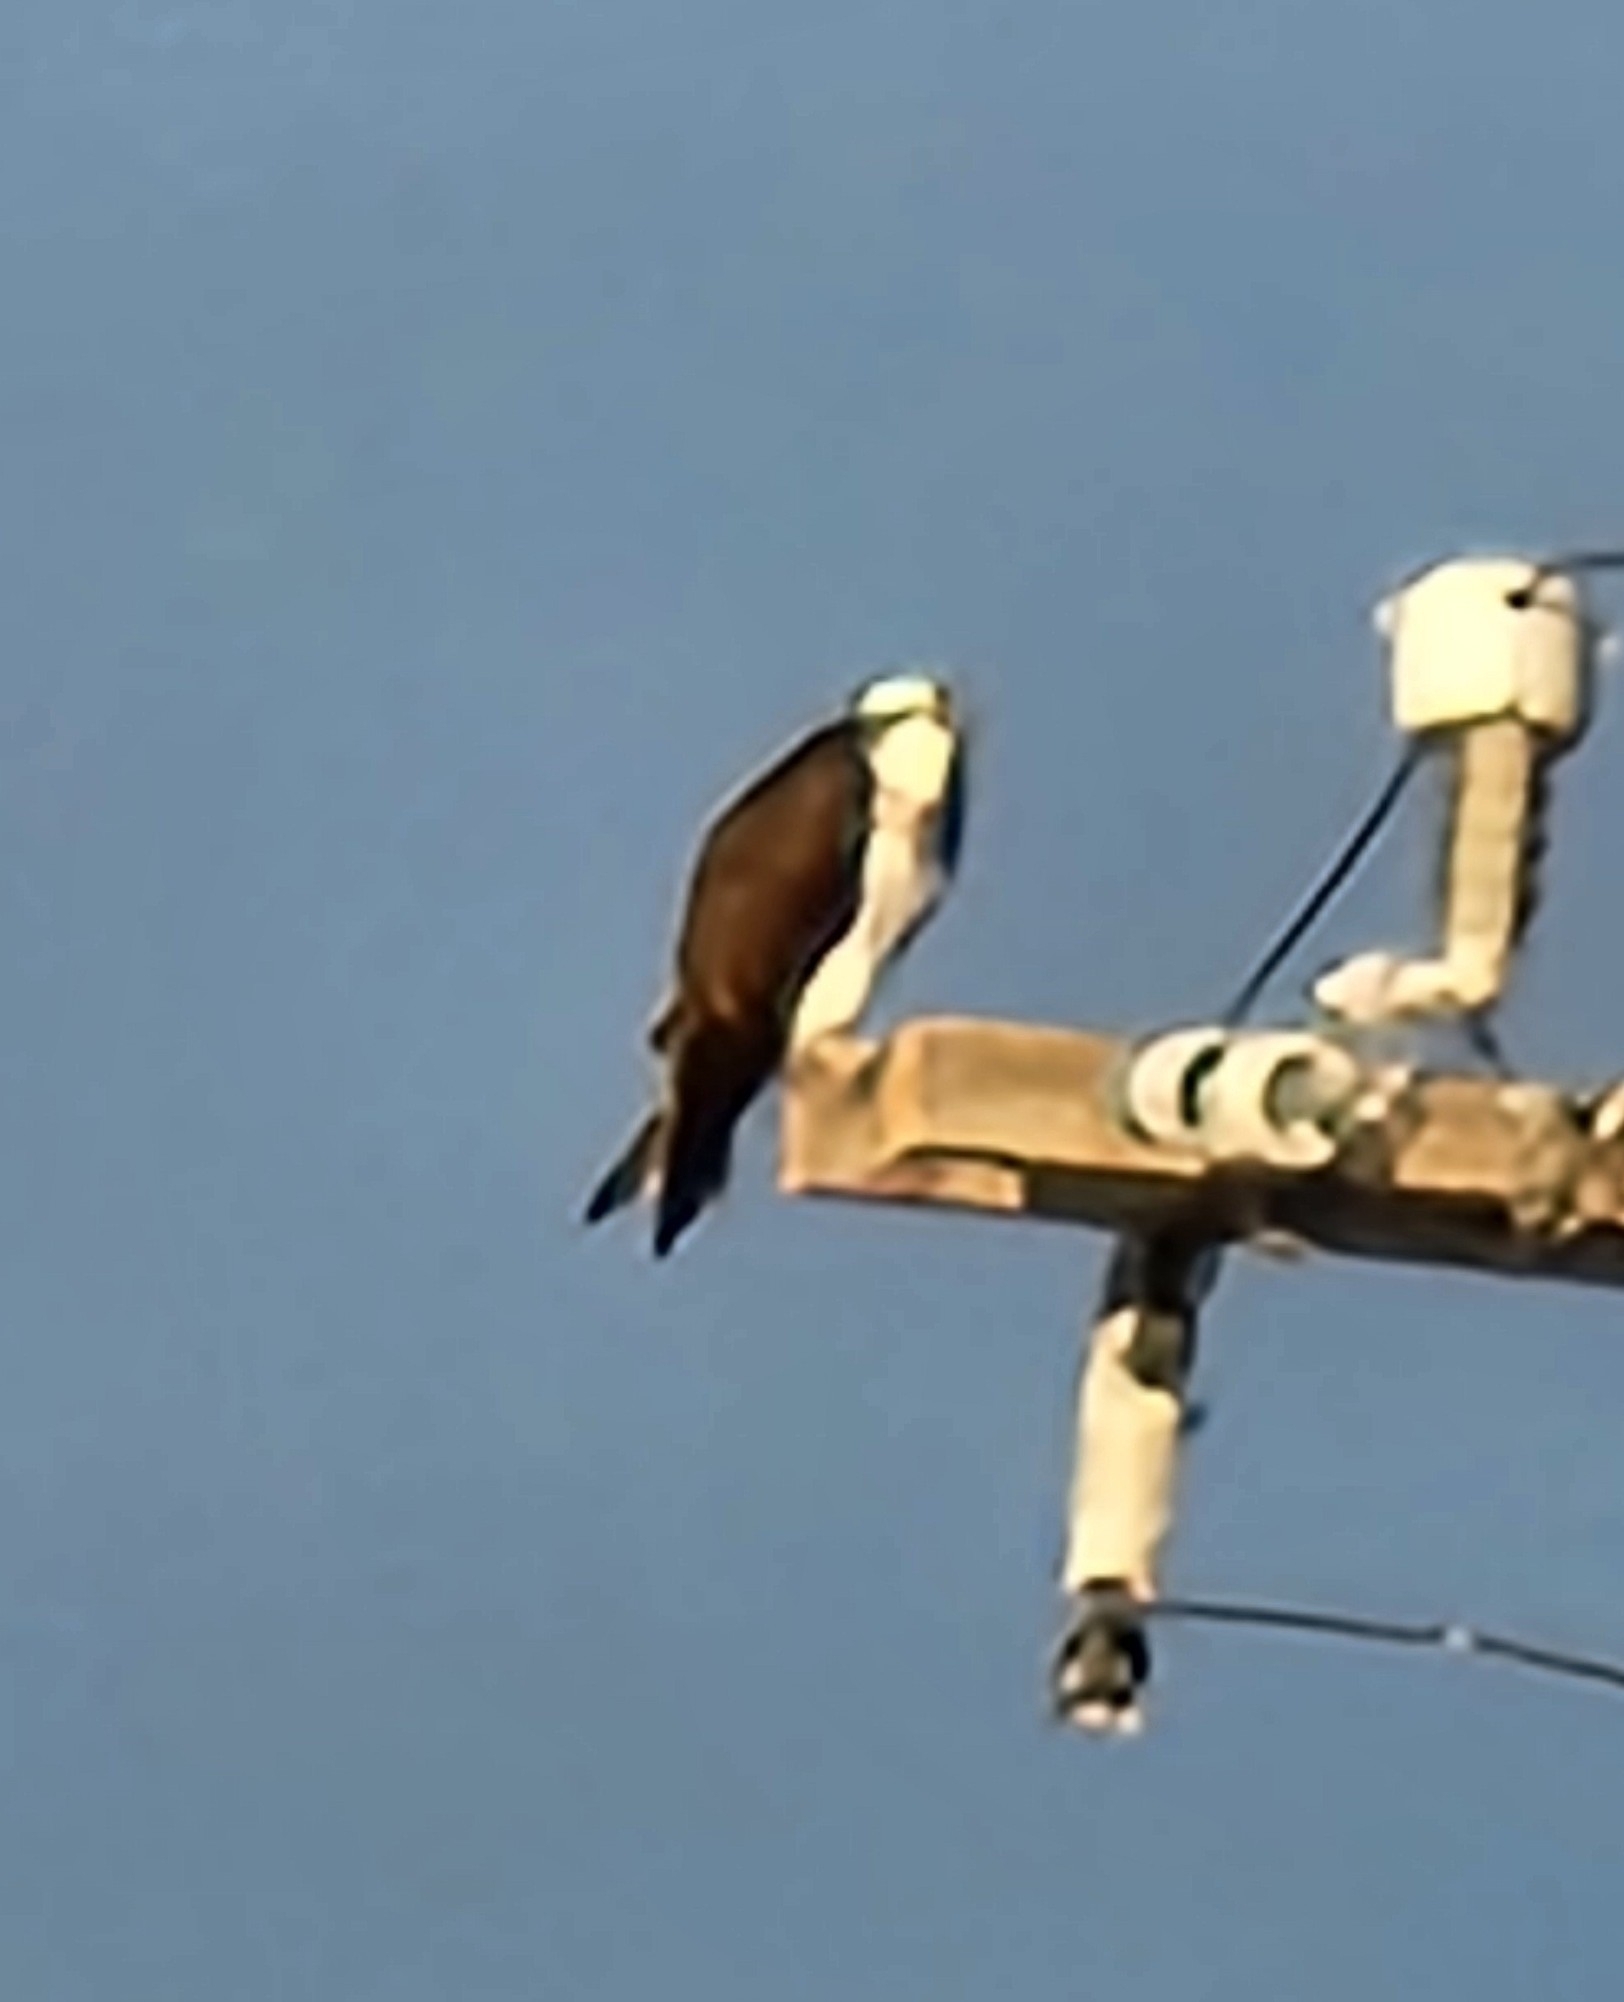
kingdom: Animalia
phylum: Chordata
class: Aves
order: Accipitriformes
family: Pandionidae
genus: Pandion
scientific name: Pandion haliaetus
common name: Osprey
